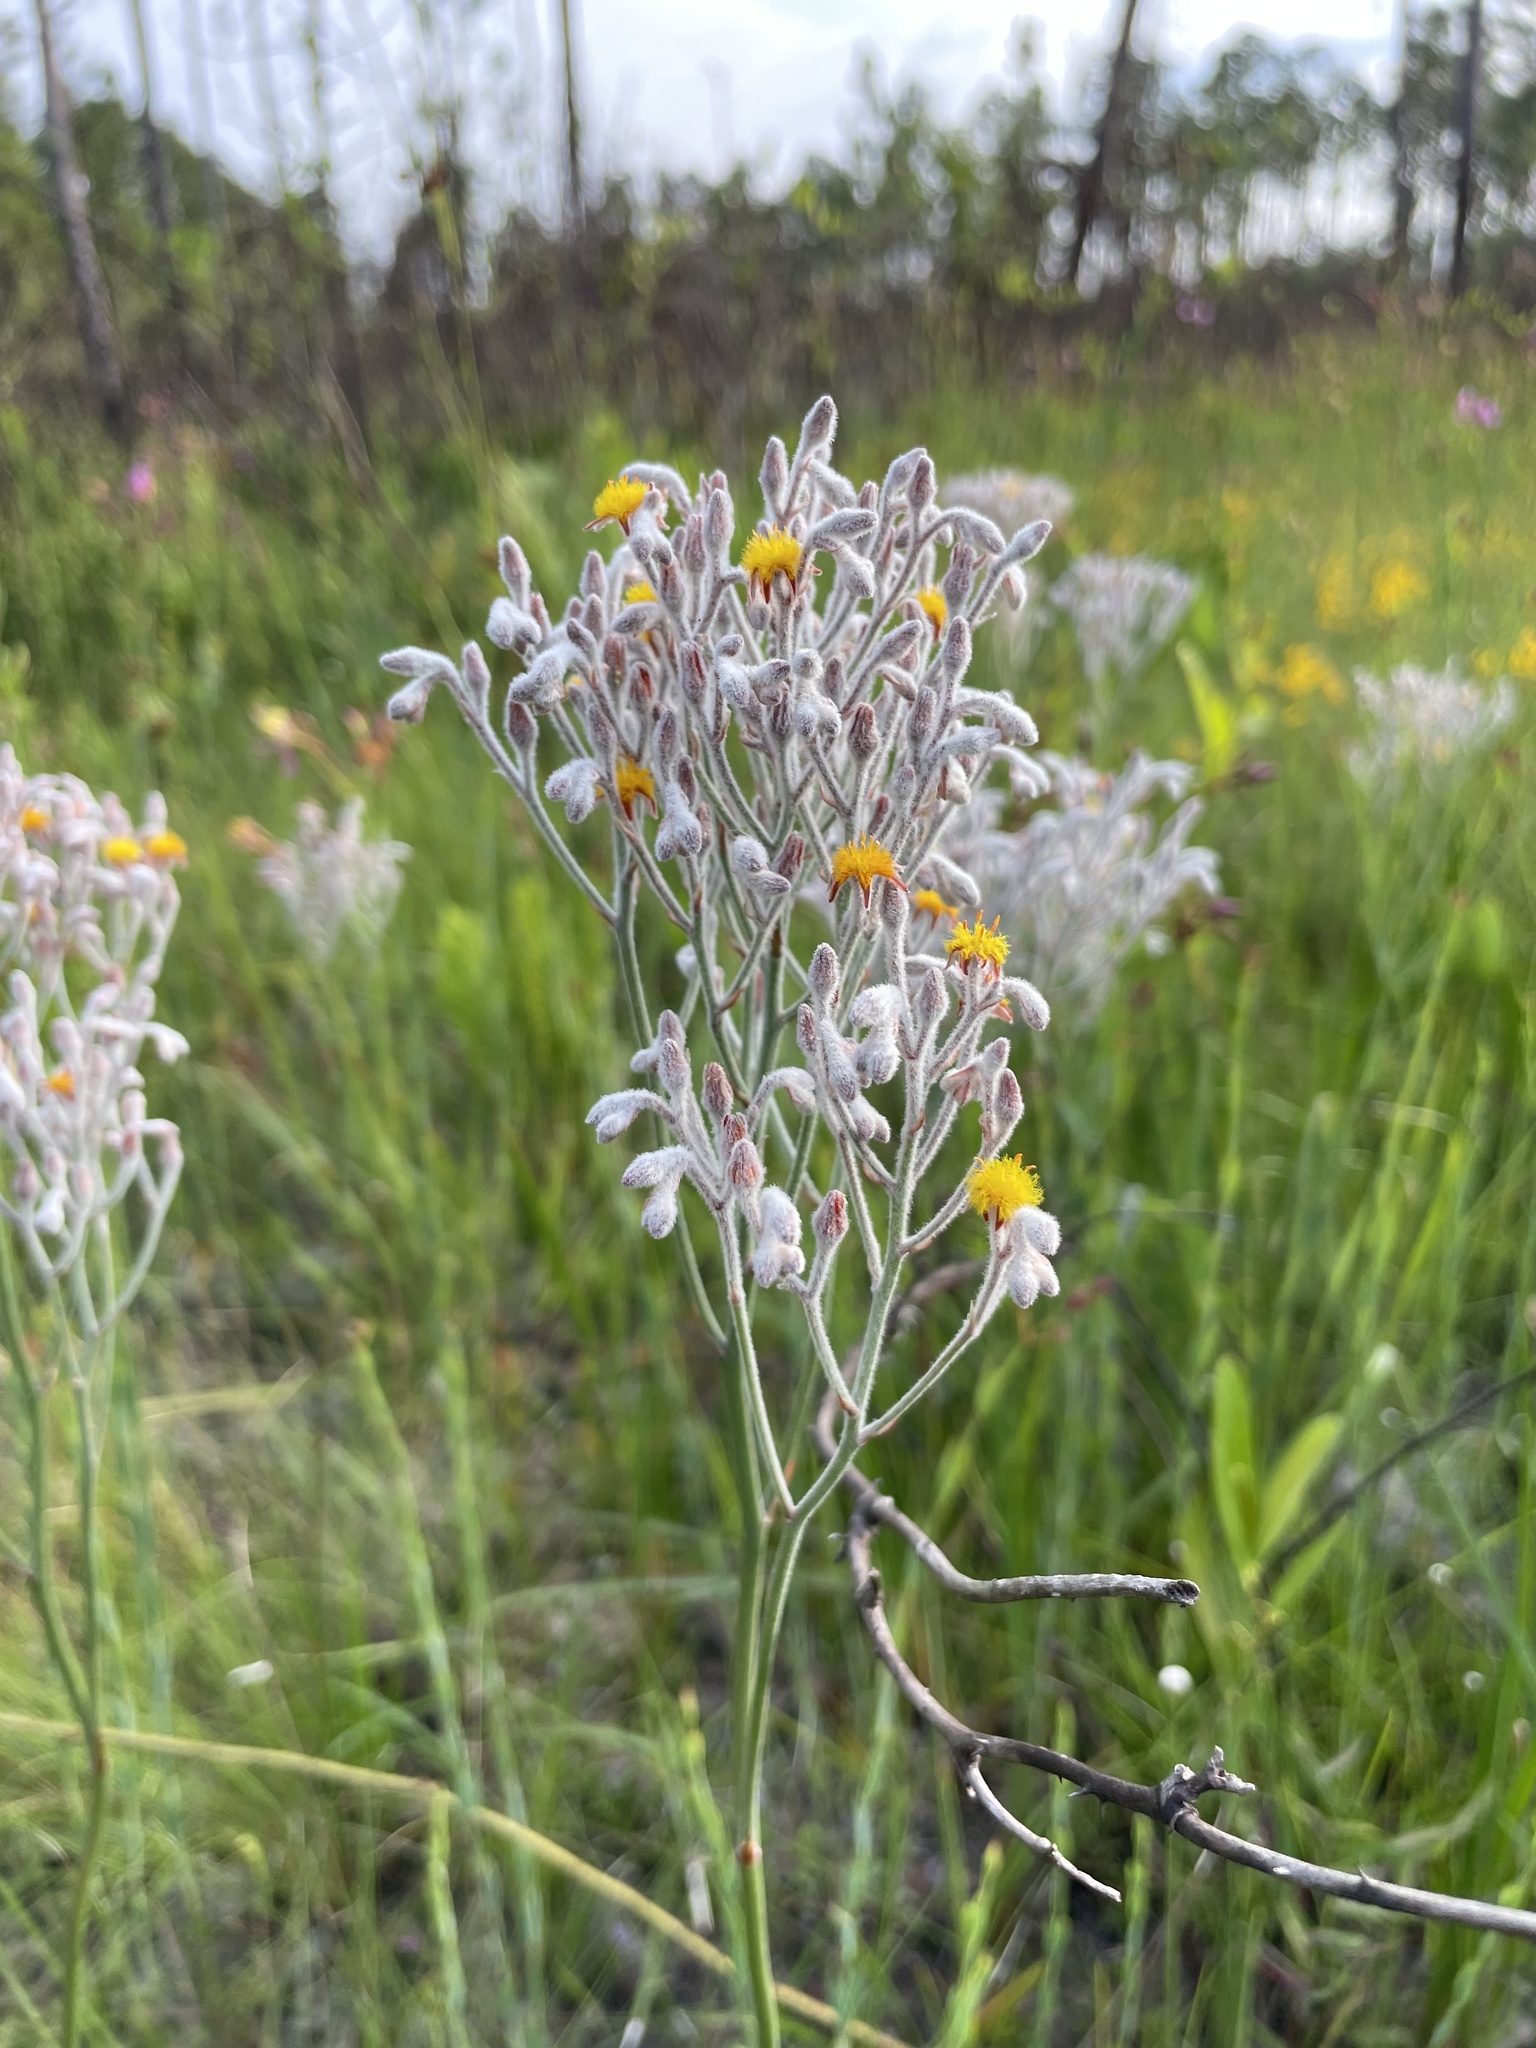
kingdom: Plantae
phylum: Tracheophyta
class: Liliopsida
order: Dioscoreales
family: Nartheciaceae
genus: Lophiola
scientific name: Lophiola aurea
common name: Golden-crest
